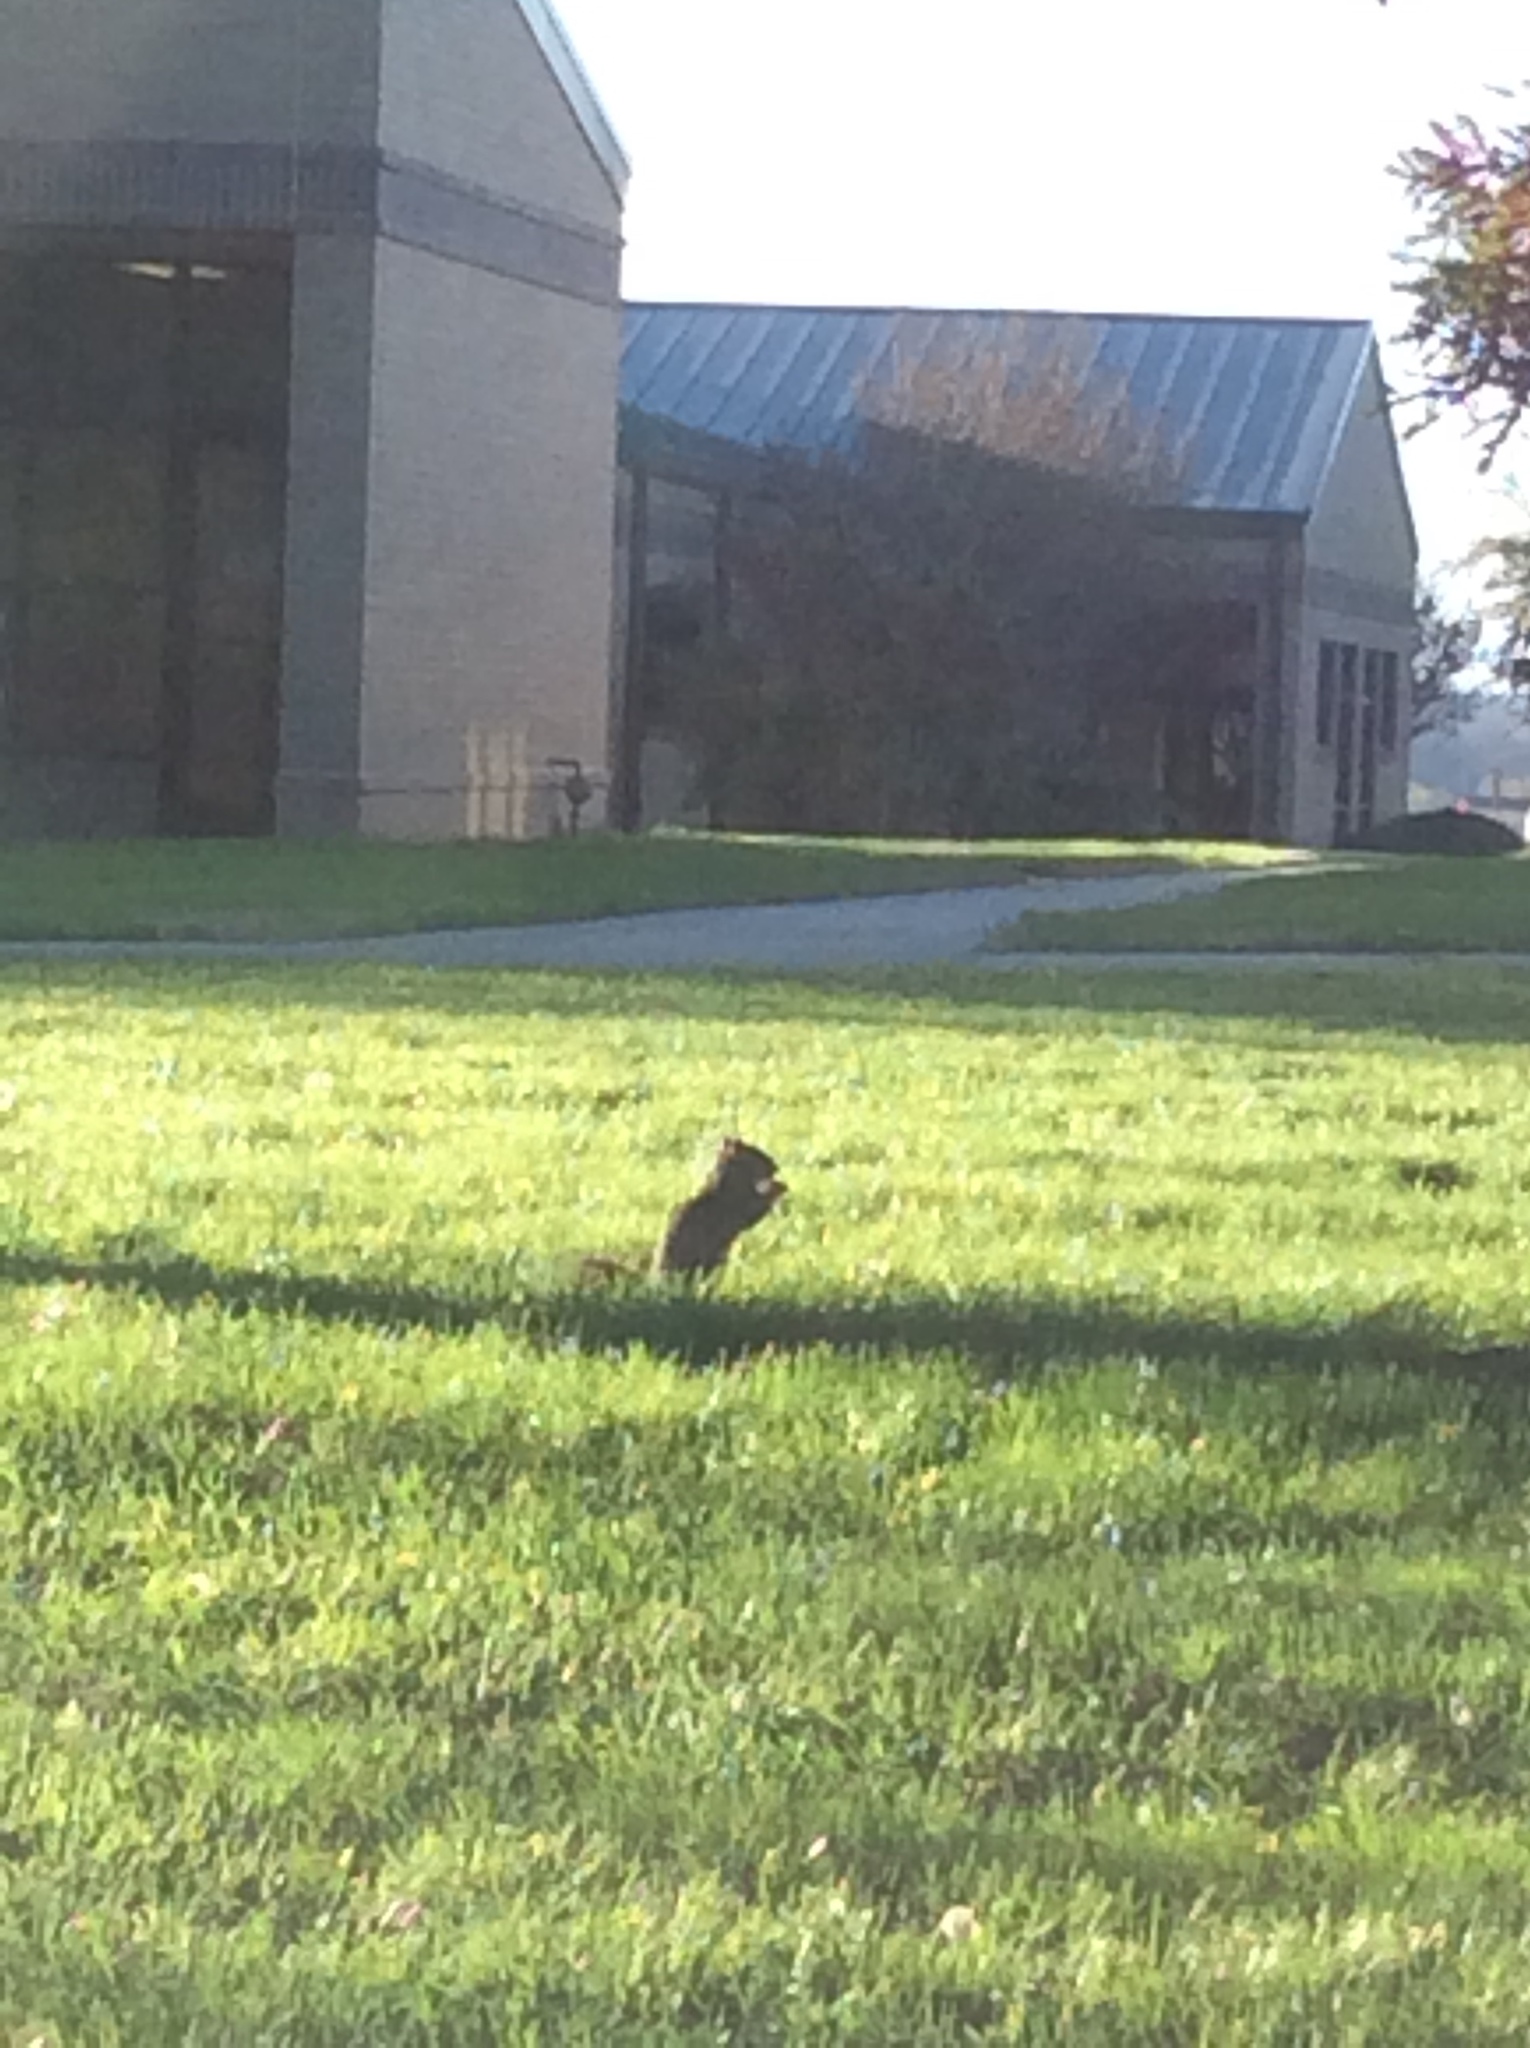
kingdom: Animalia
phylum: Chordata
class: Mammalia
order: Rodentia
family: Sciuridae
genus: Sciurus
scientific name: Sciurus niger
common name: Fox squirrel
